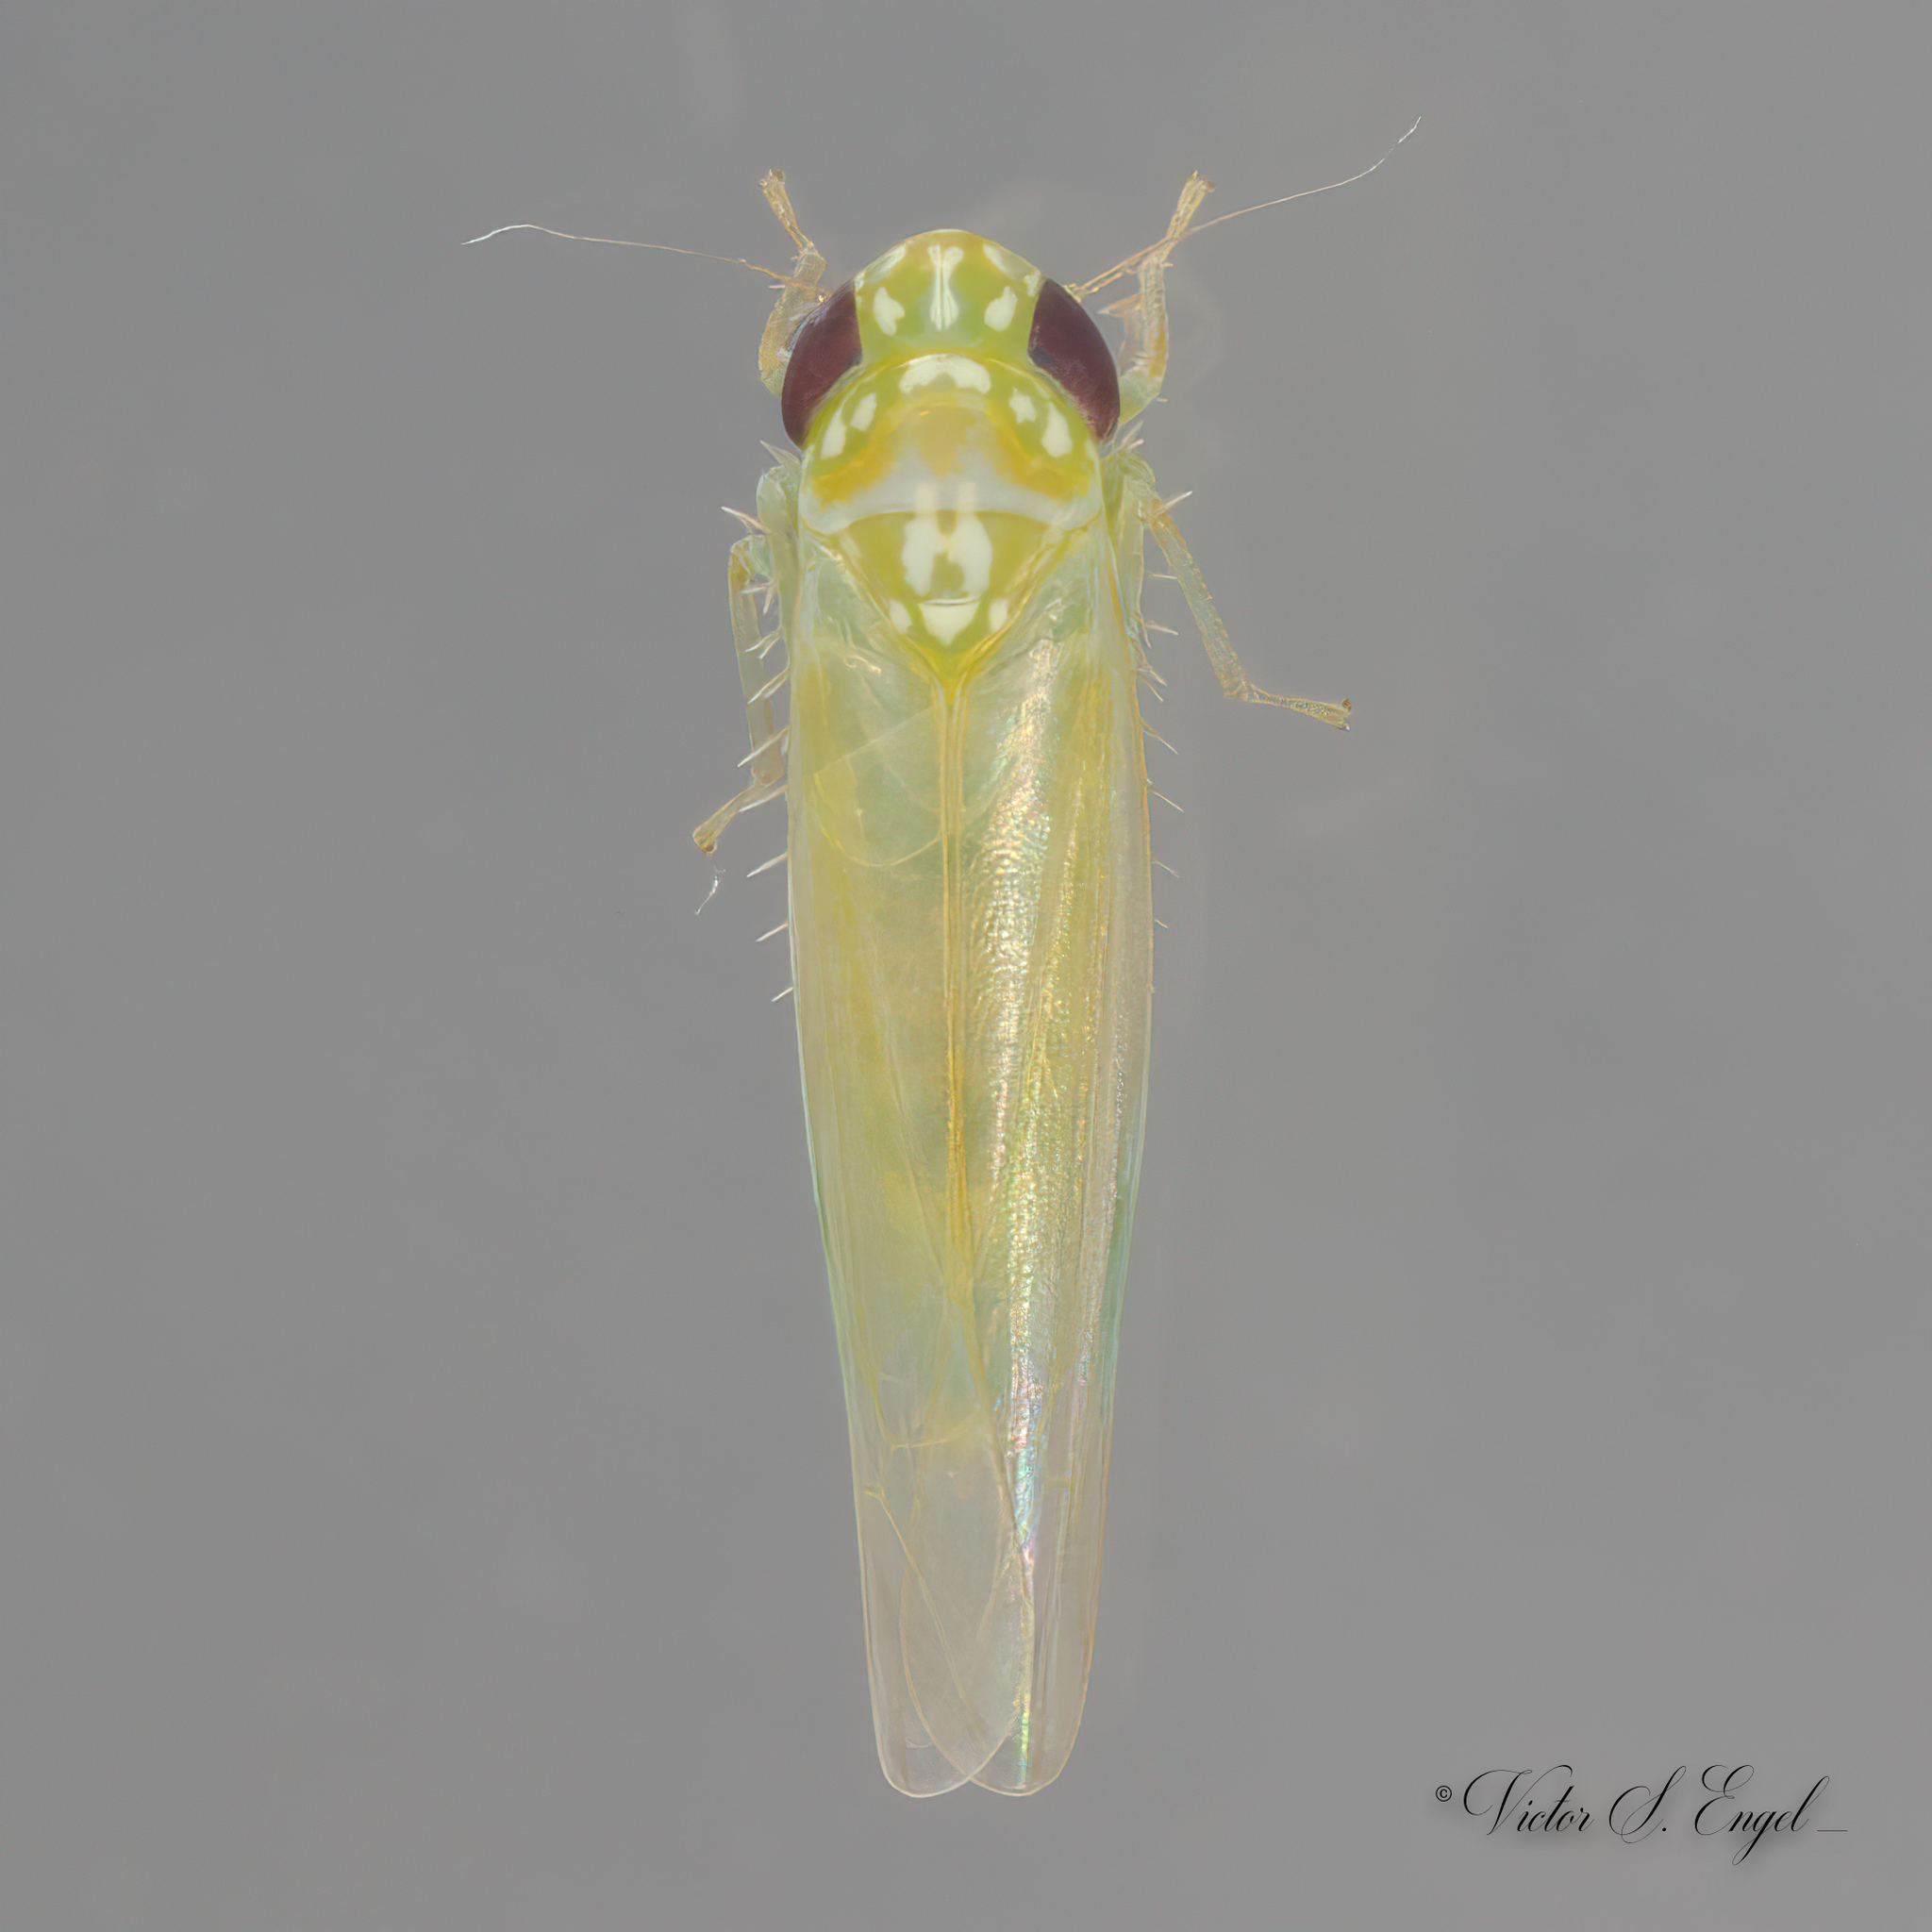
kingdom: Animalia
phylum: Arthropoda
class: Insecta
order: Hemiptera
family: Cicadellidae
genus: Empoasca
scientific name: Empoasca fabae
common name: Potato leafhopper
